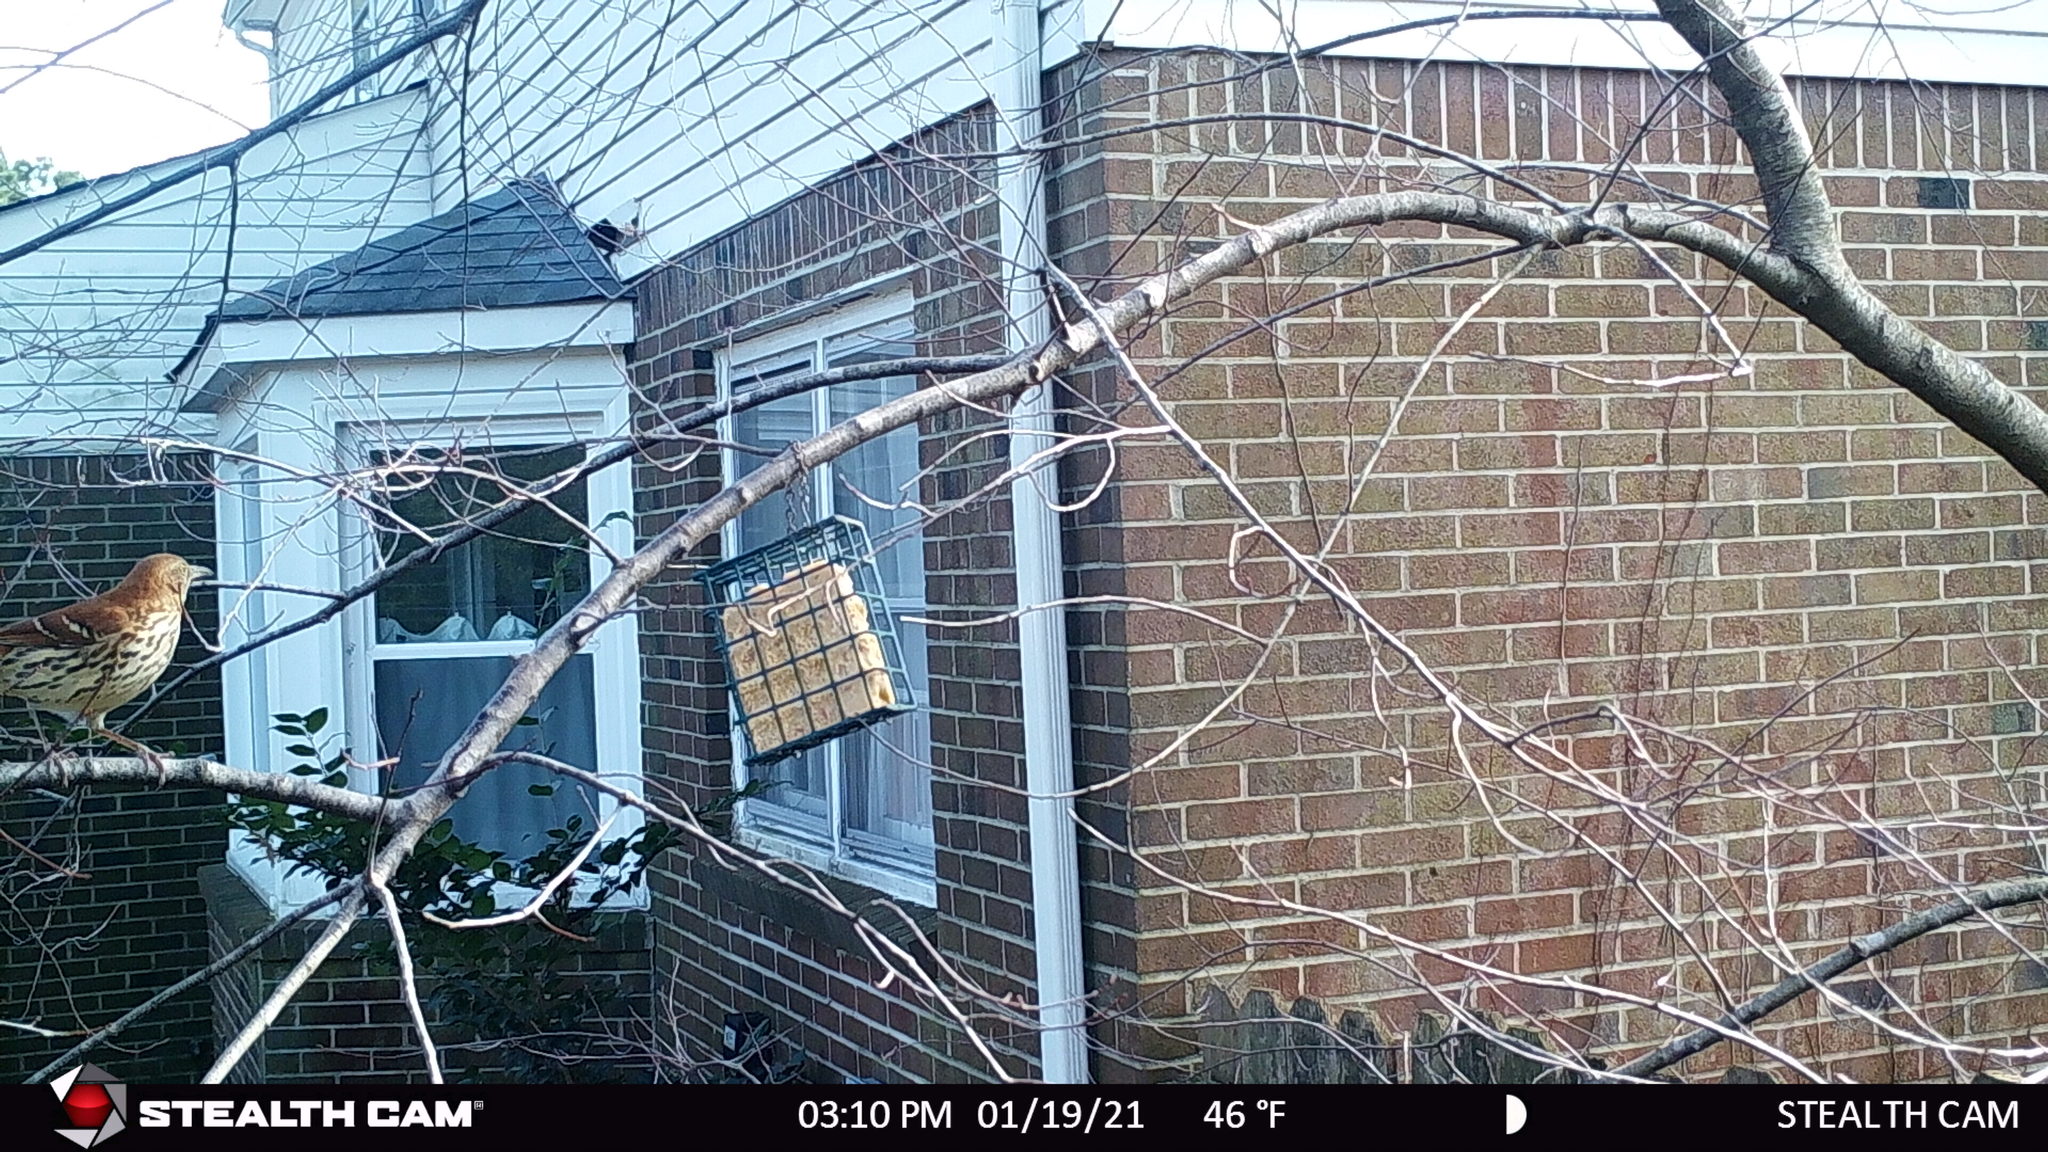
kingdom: Animalia
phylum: Chordata
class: Aves
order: Passeriformes
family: Mimidae
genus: Toxostoma
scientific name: Toxostoma rufum
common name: Brown thrasher
